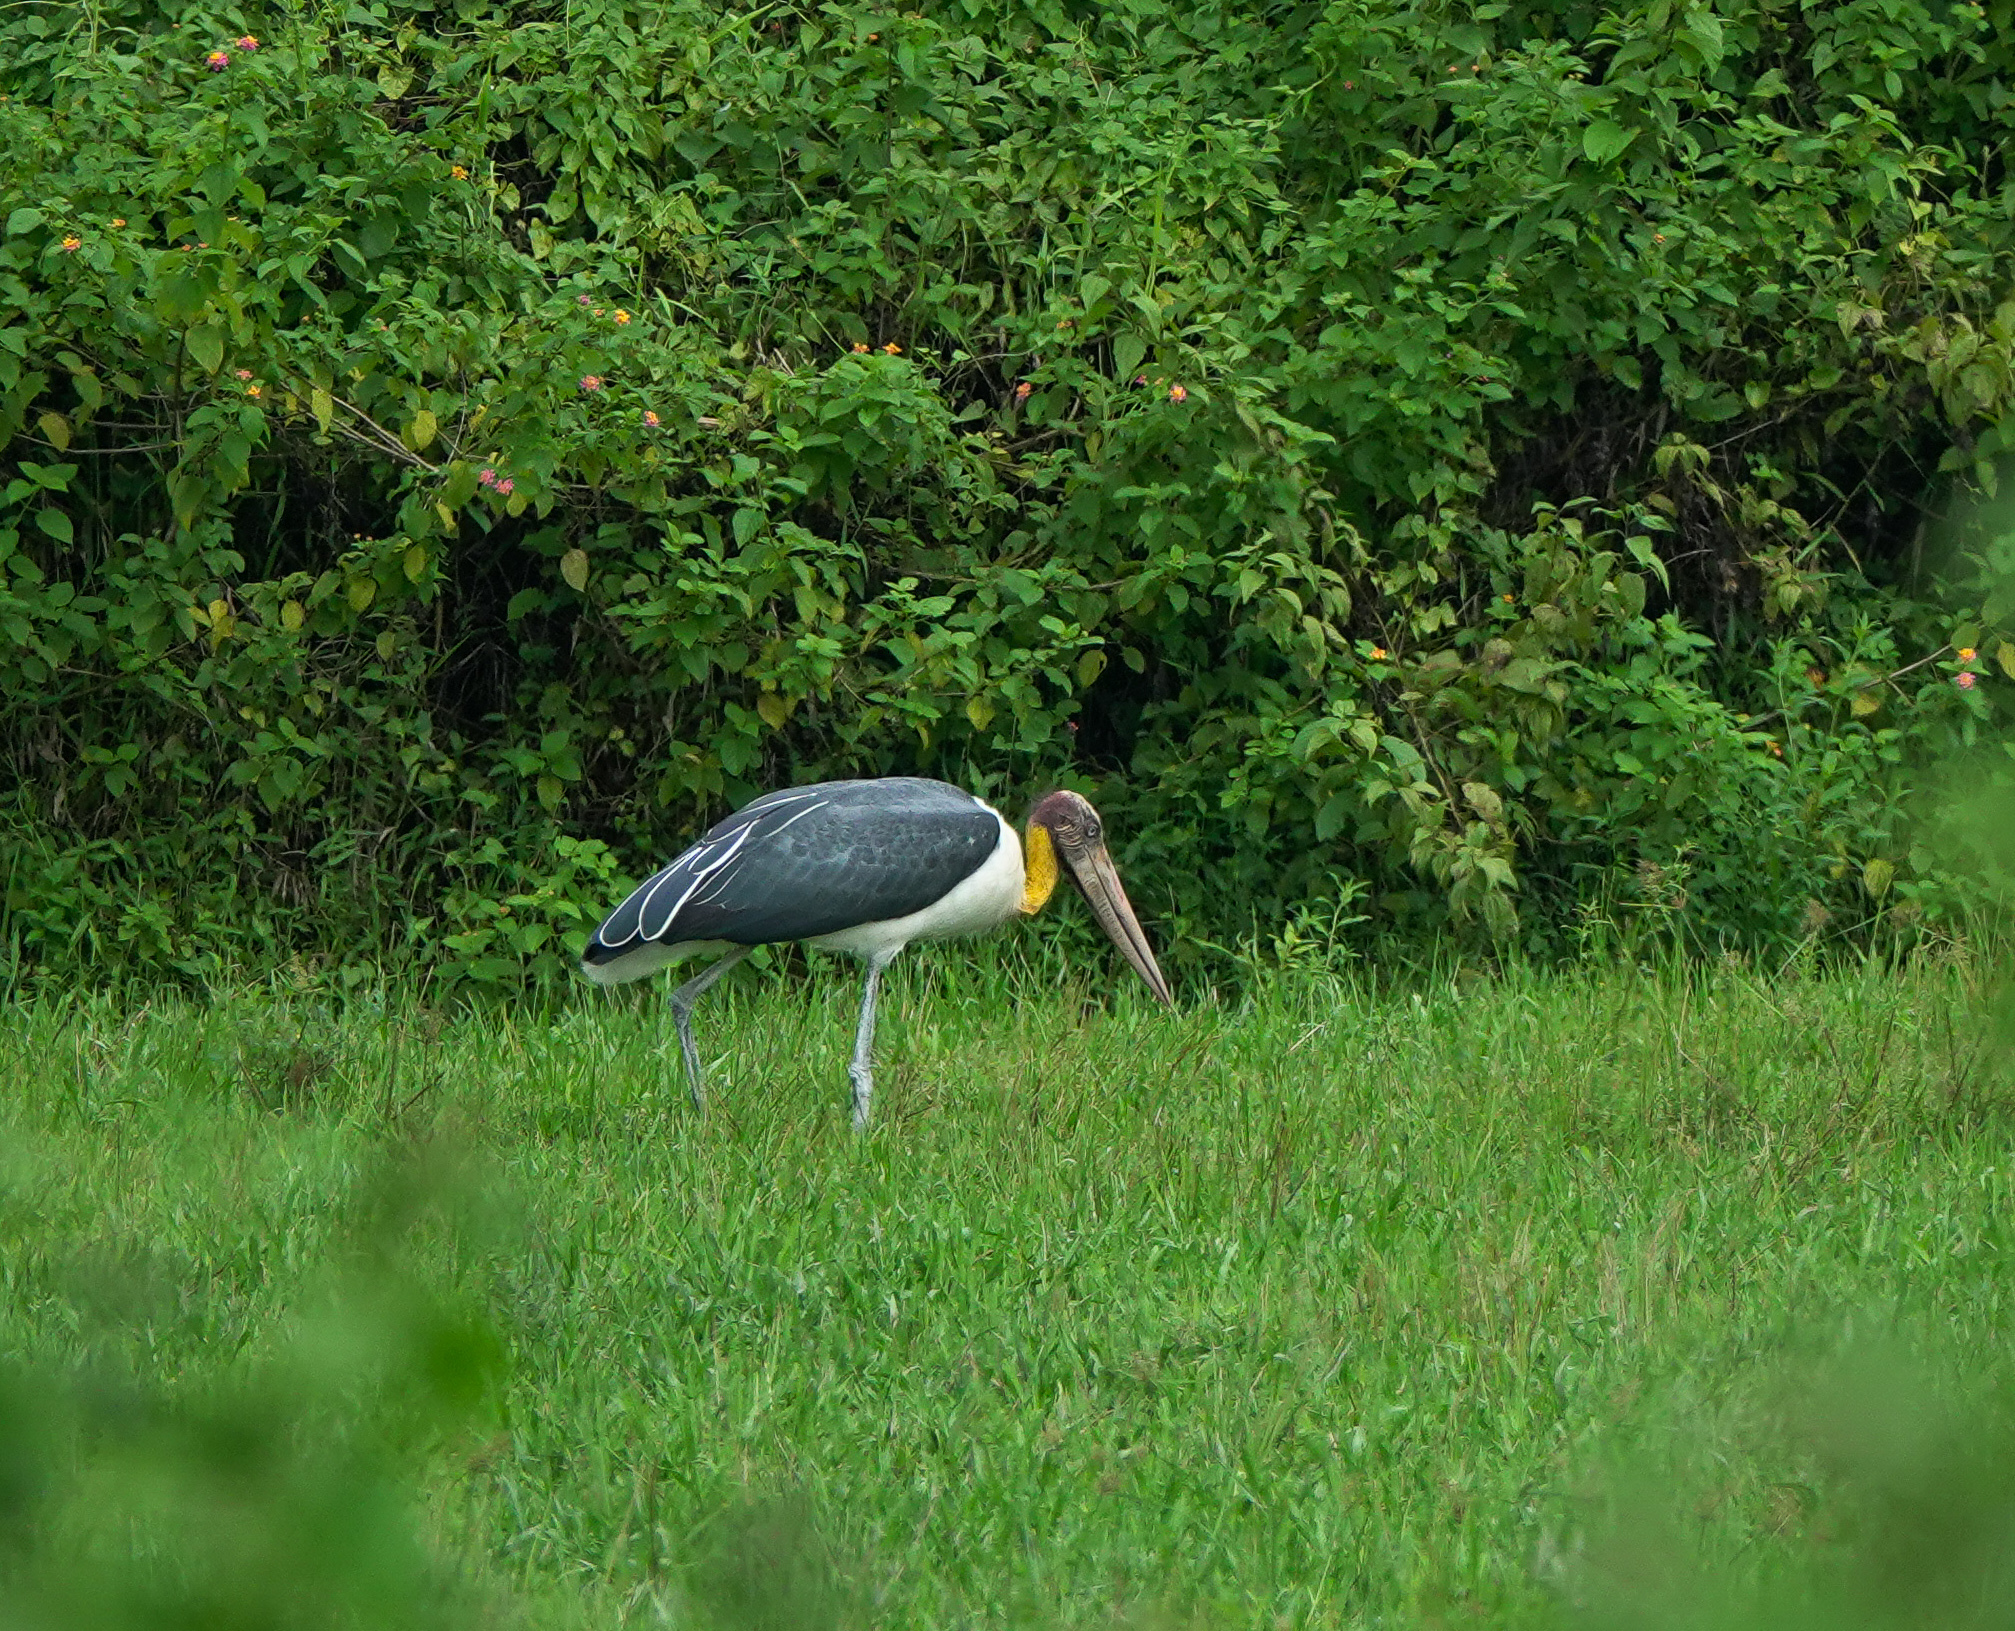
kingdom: Animalia
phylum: Chordata
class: Aves
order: Ciconiiformes
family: Ciconiidae
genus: Leptoptilos
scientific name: Leptoptilos javanicus
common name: Lesser adjutant
